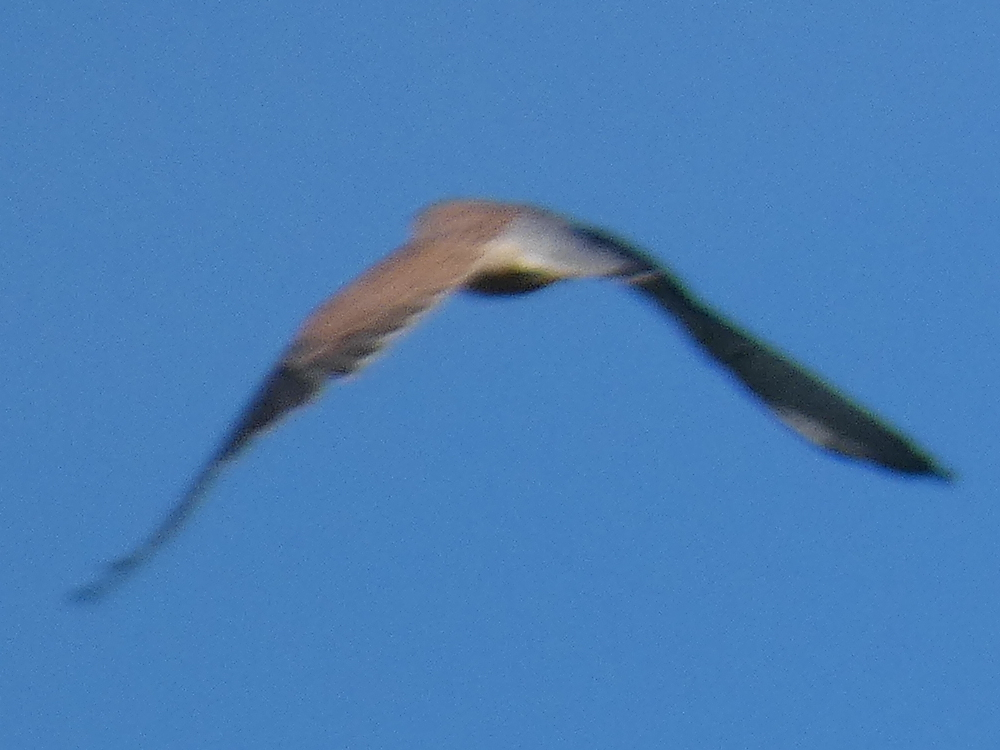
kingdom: Animalia
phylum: Chordata
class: Aves
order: Falconiformes
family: Falconidae
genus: Falco
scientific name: Falco tinnunculus
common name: Common kestrel
